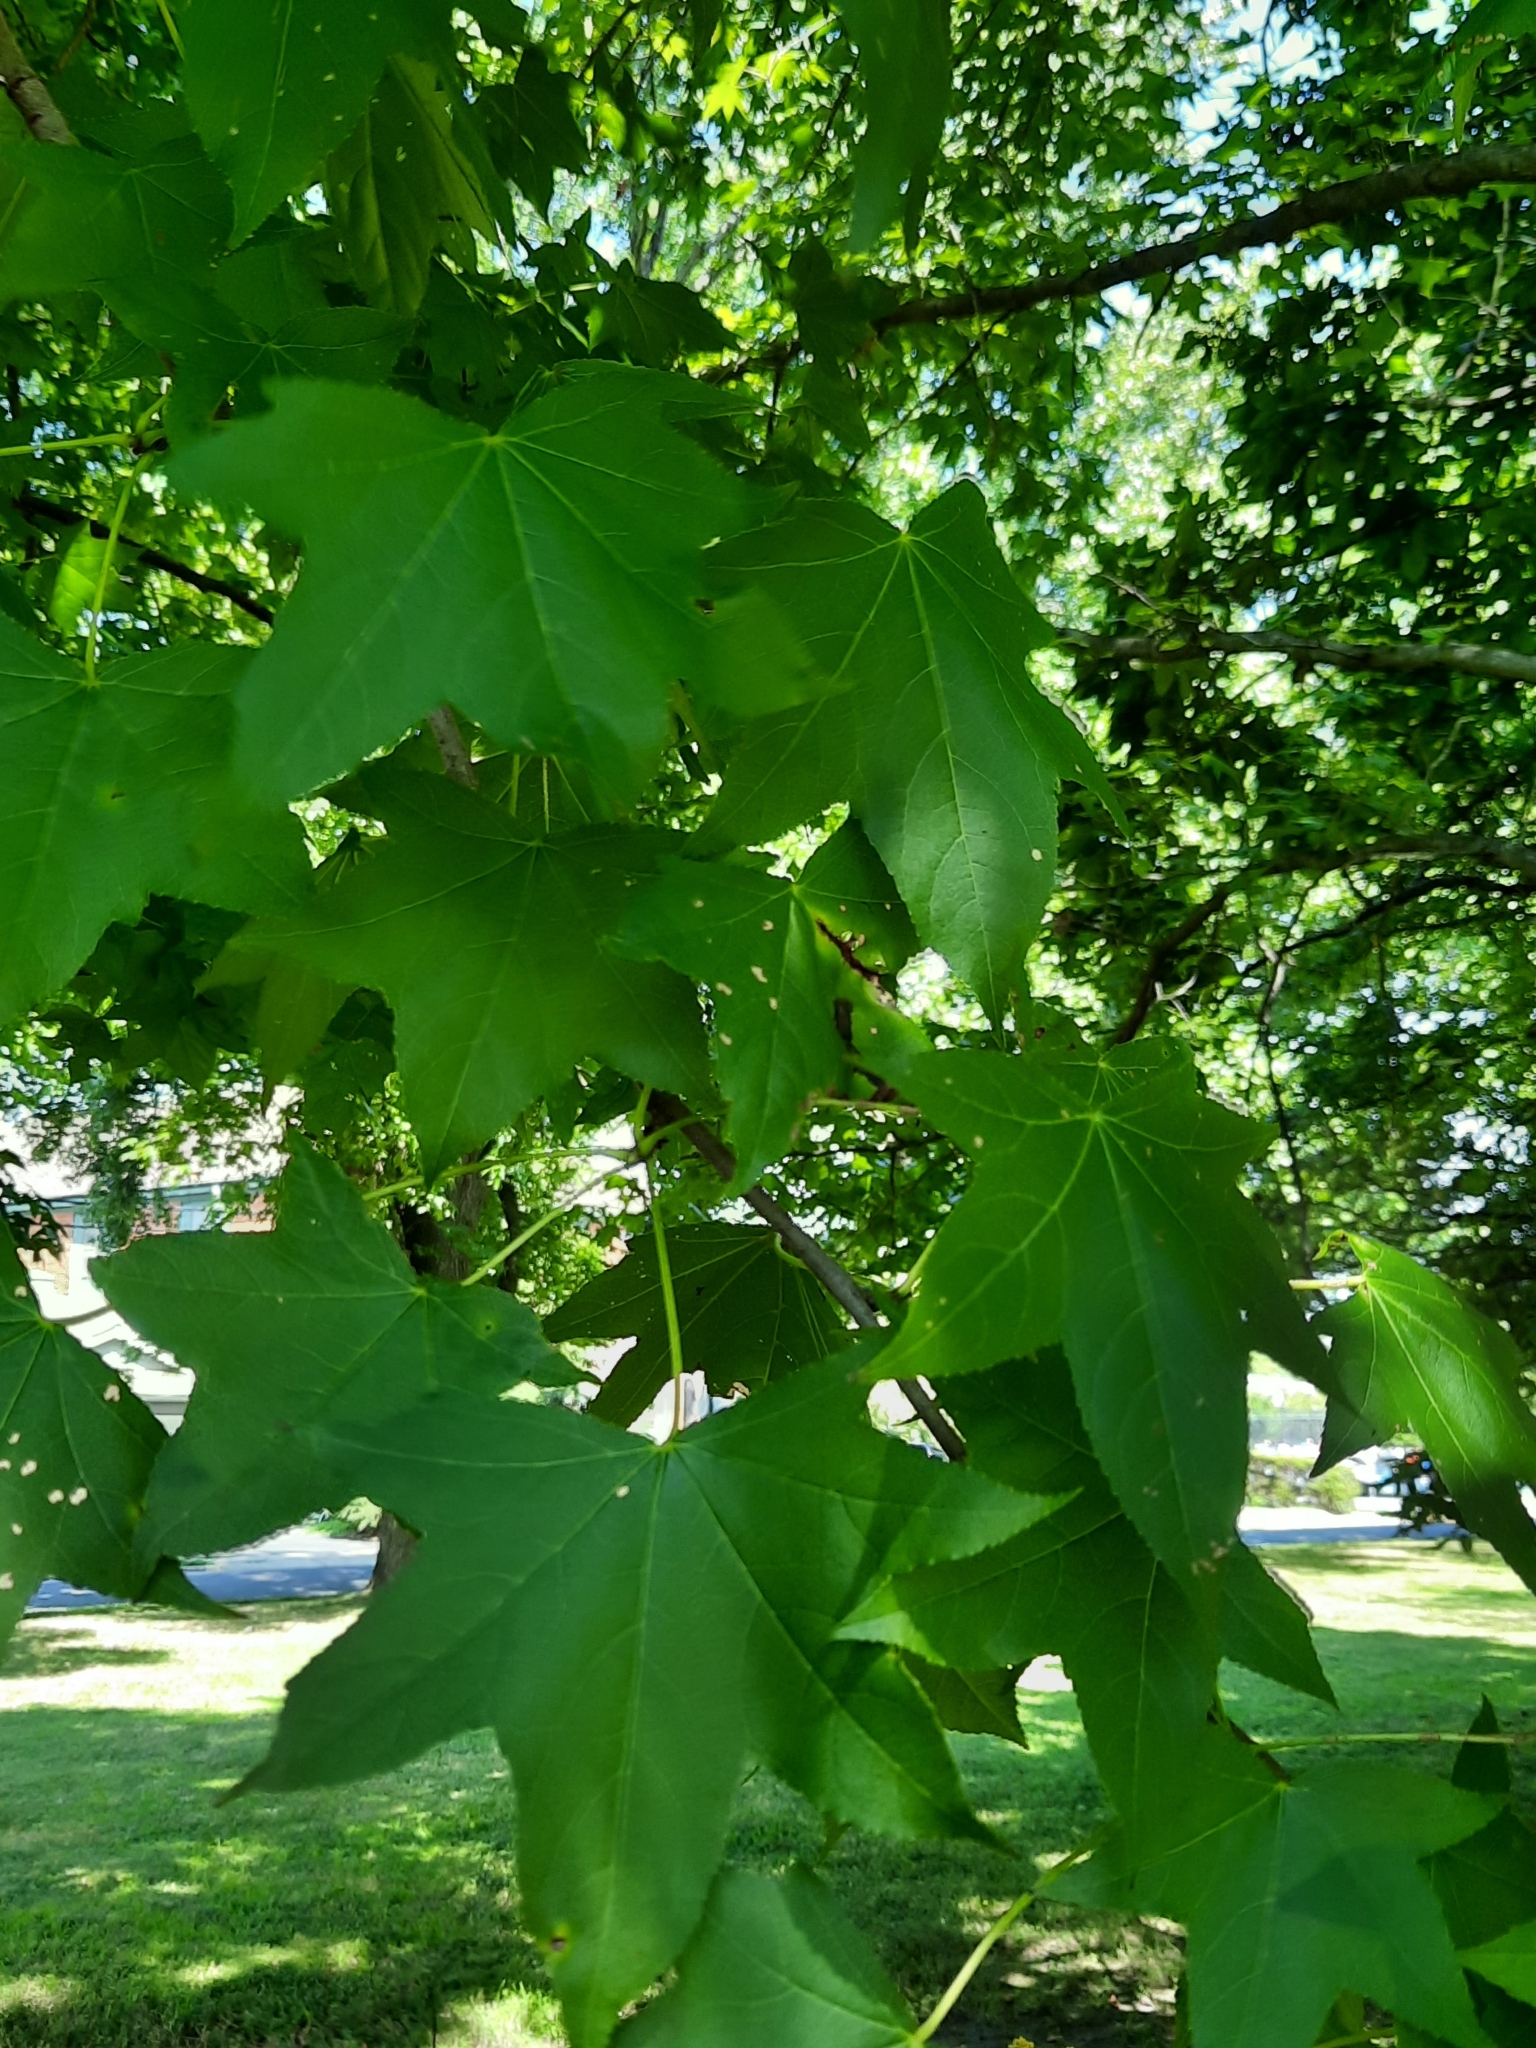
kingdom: Plantae
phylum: Tracheophyta
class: Magnoliopsida
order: Saxifragales
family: Altingiaceae
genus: Liquidambar
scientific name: Liquidambar styraciflua
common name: Sweet gum
